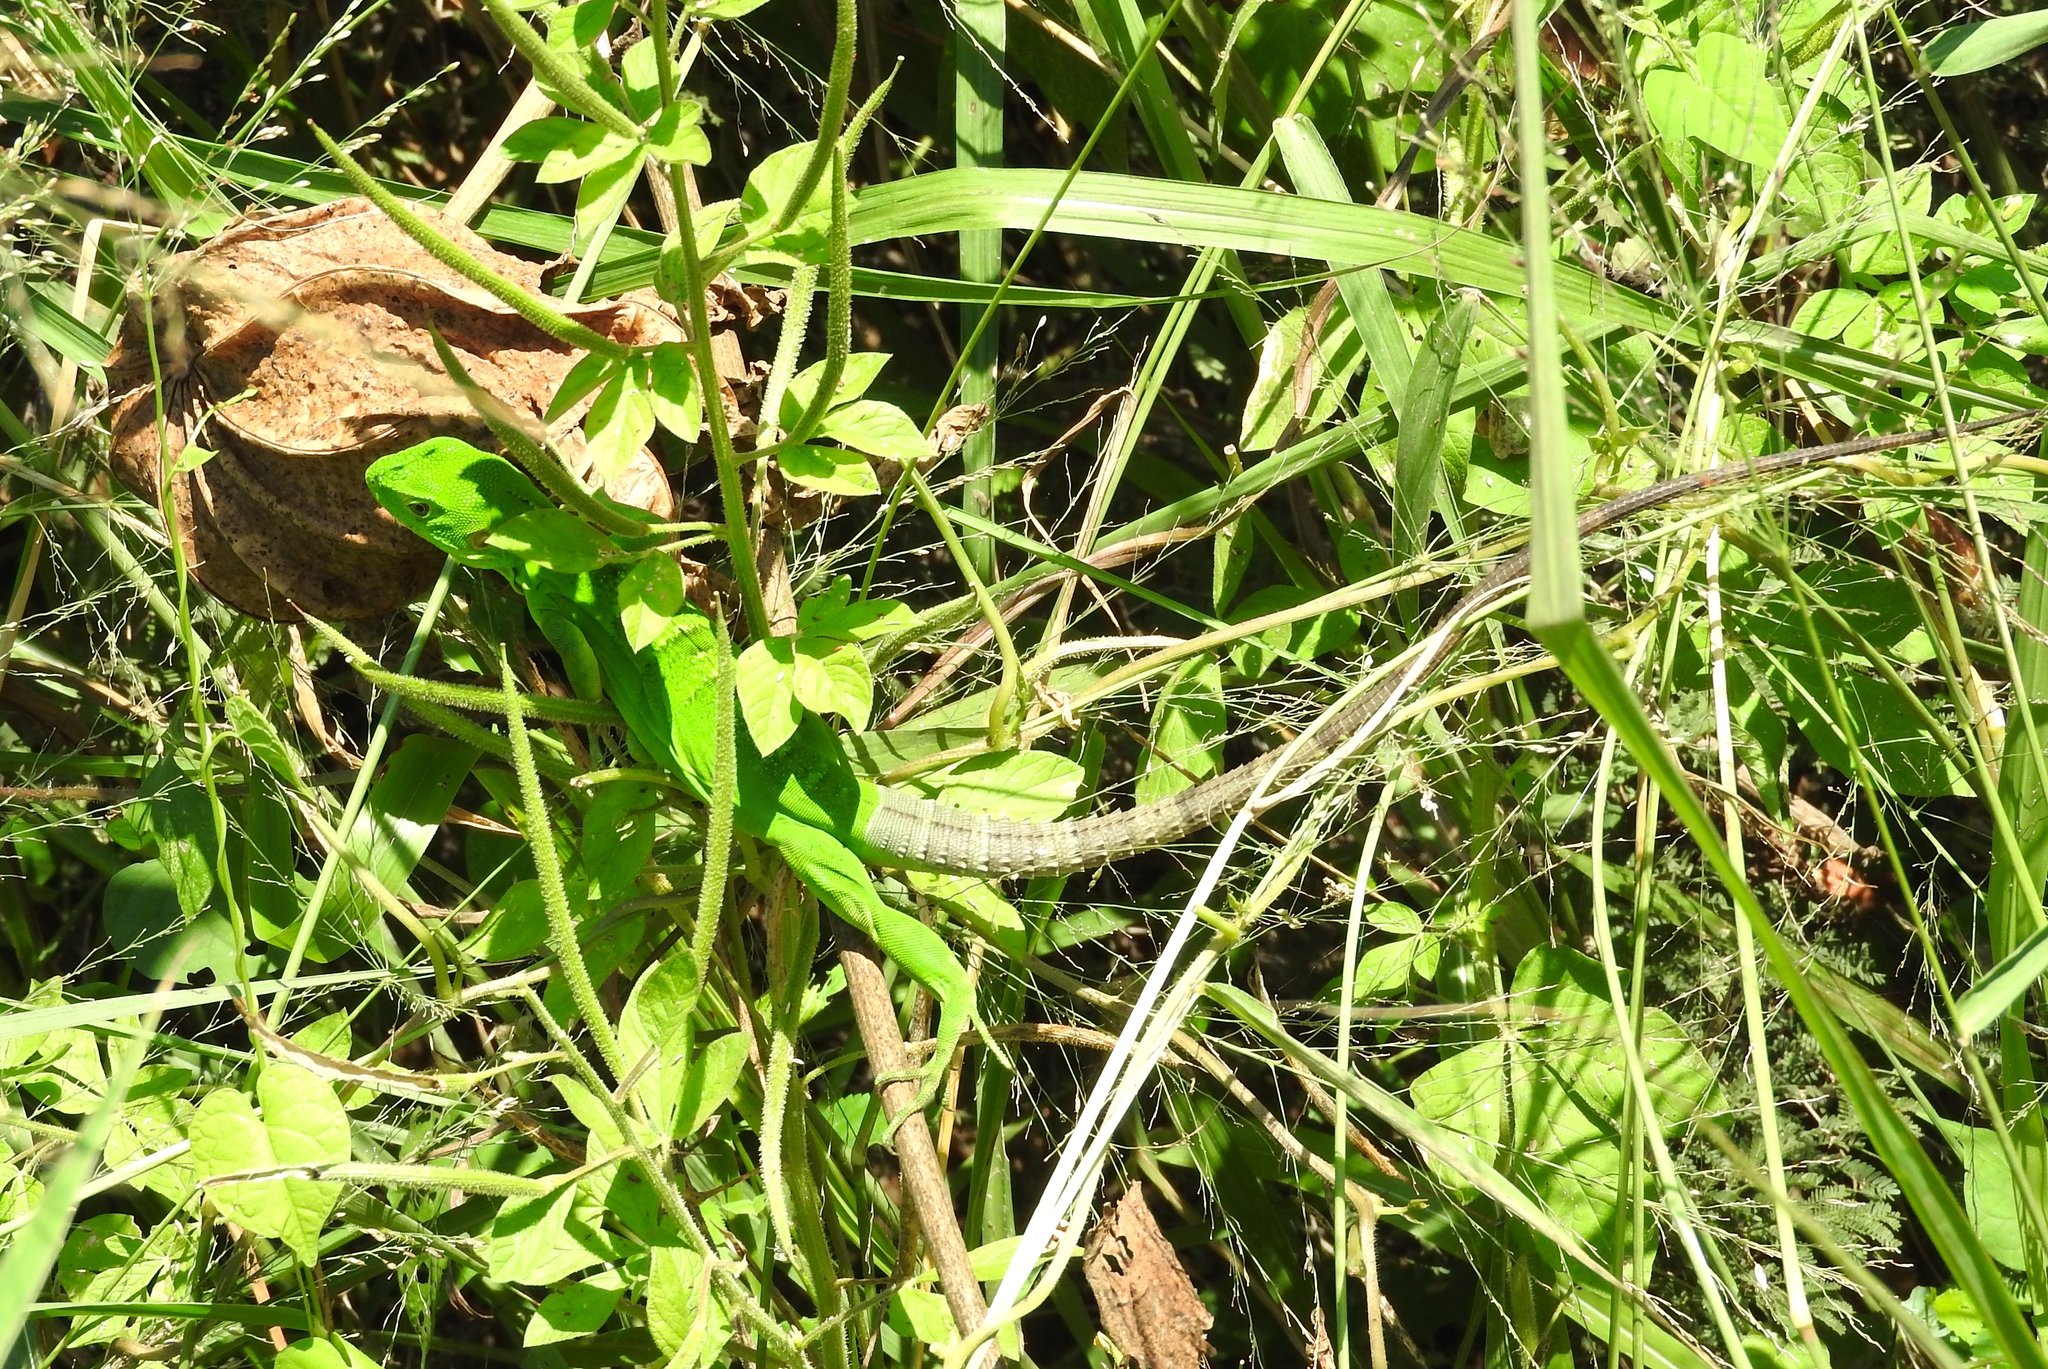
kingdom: Animalia
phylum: Chordata
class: Squamata
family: Iguanidae
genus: Ctenosaura
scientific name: Ctenosaura pectinata
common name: Guerreran spiny-tailed iguana
